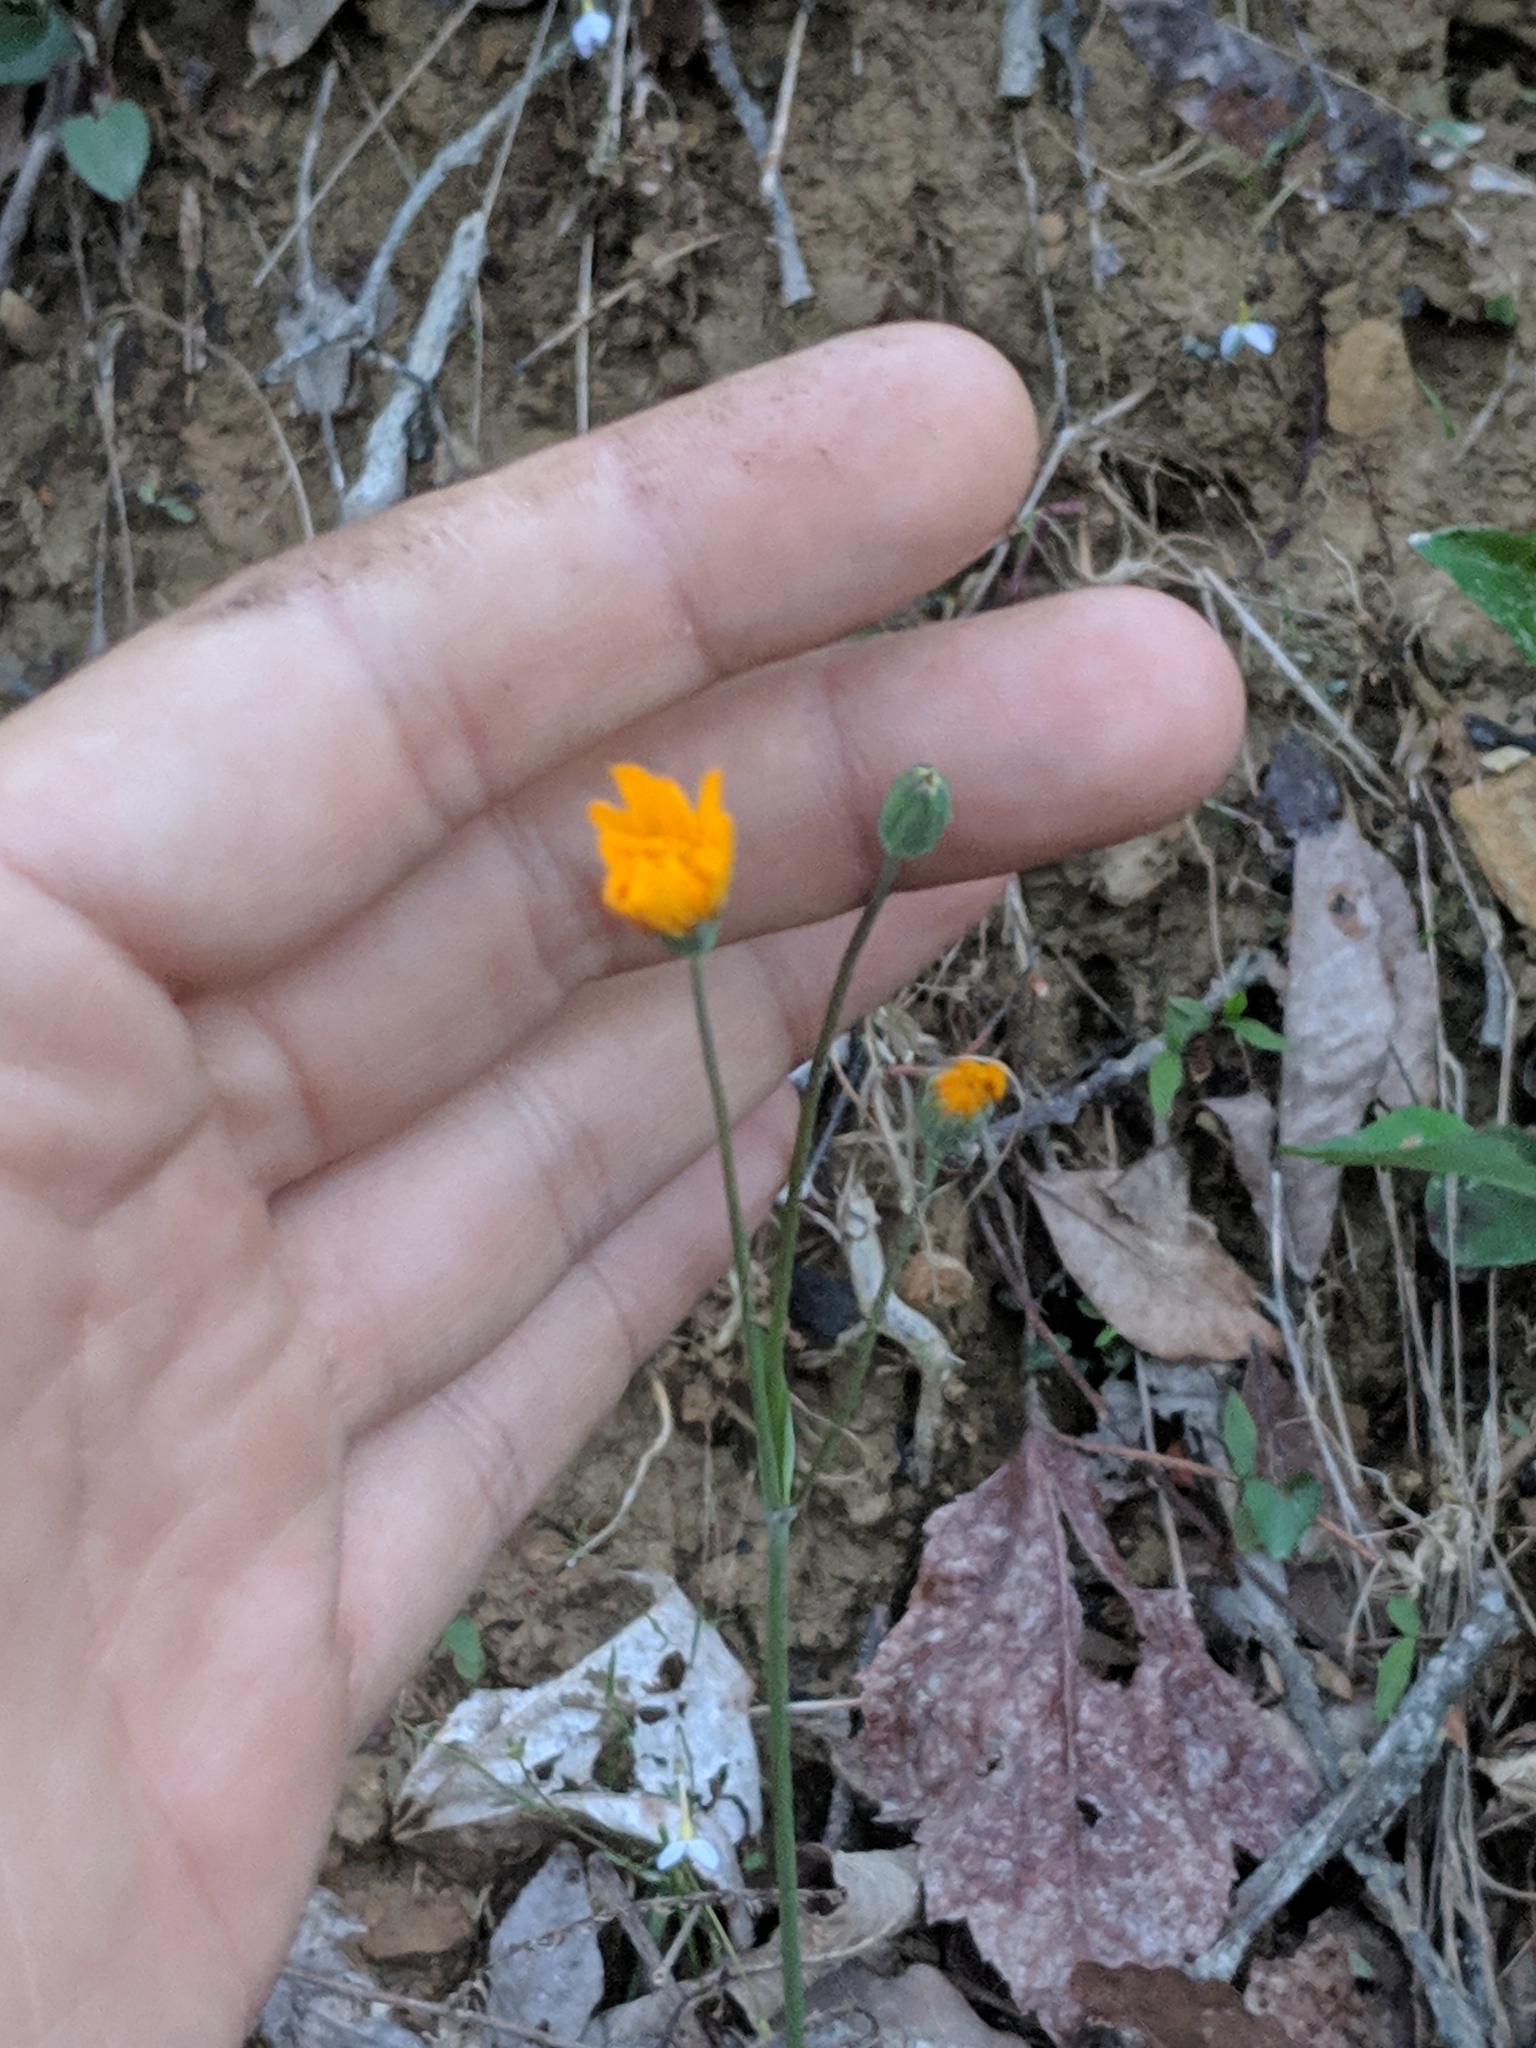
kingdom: Plantae
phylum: Tracheophyta
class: Magnoliopsida
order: Asterales
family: Asteraceae
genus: Krigia
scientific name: Krigia biflora
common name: Orange dwarf-dandelion
